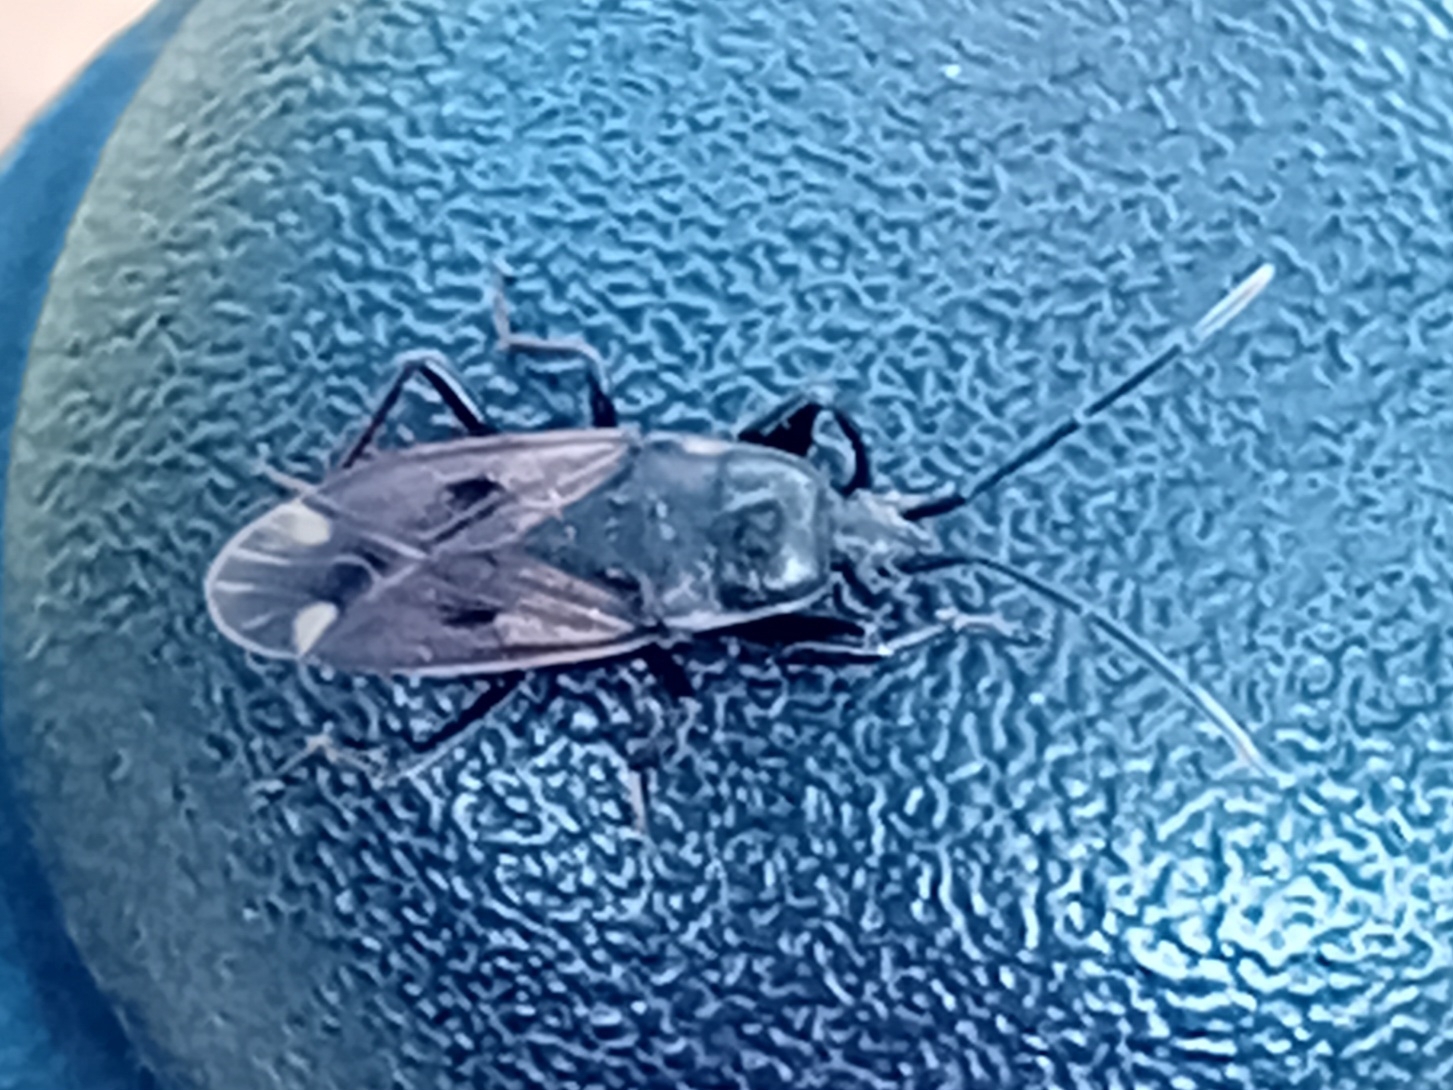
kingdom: Animalia
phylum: Arthropoda
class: Insecta
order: Hemiptera
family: Rhyparochromidae
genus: Eremocoris
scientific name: Eremocoris fenestratus
